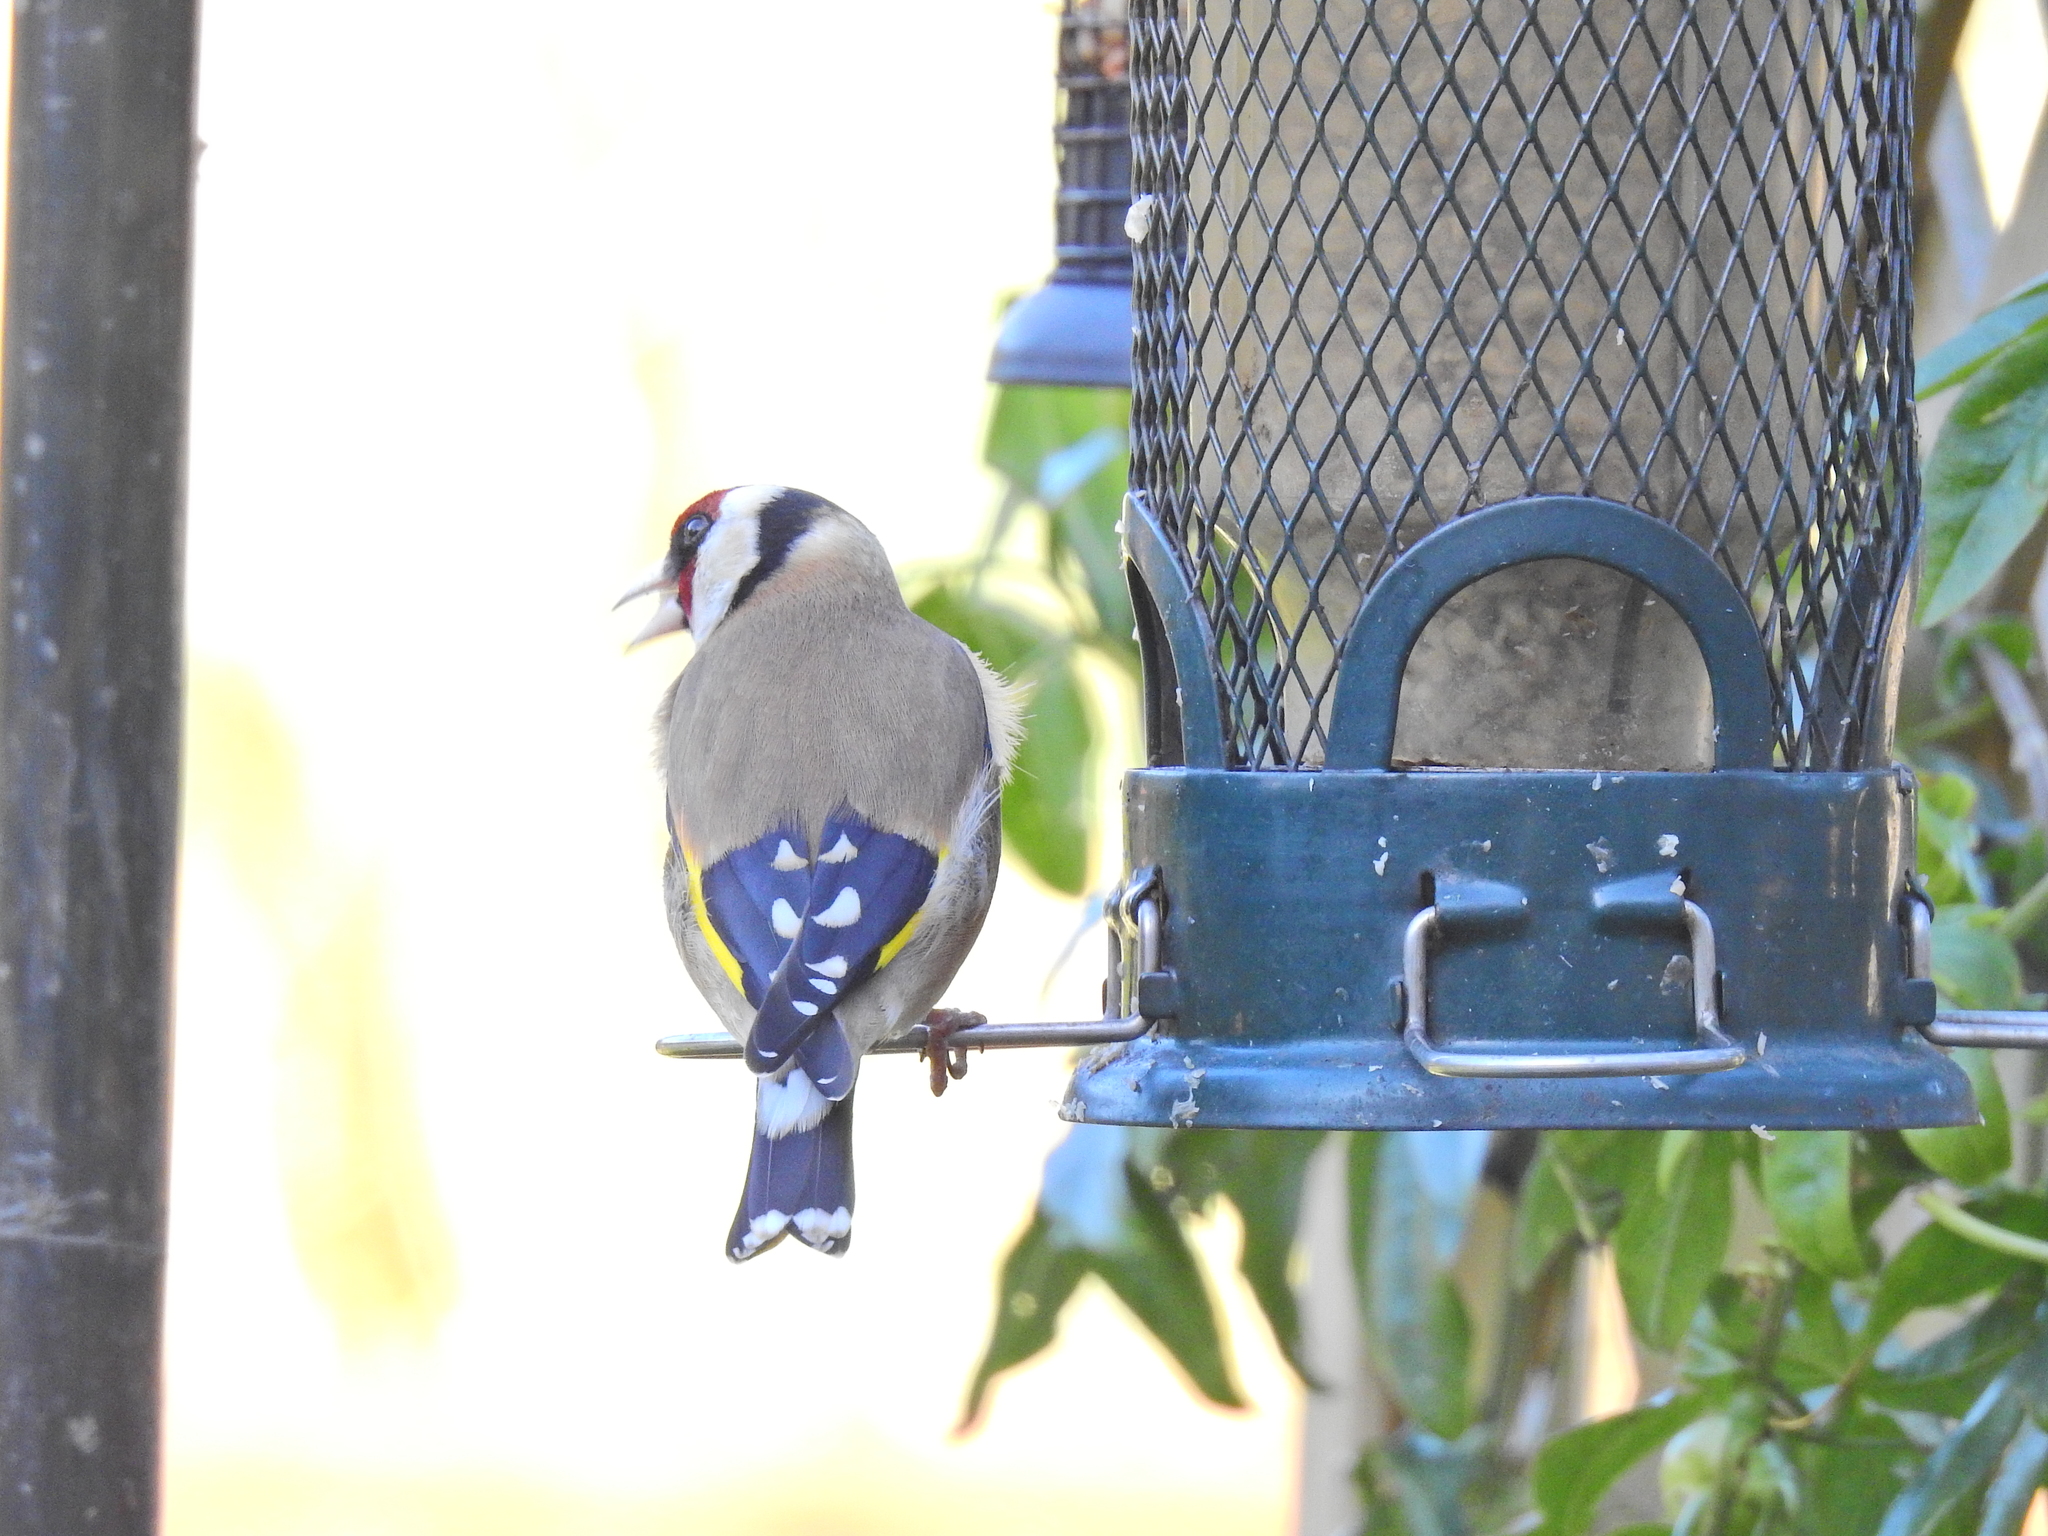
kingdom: Animalia
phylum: Chordata
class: Aves
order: Passeriformes
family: Fringillidae
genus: Carduelis
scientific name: Carduelis carduelis
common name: European goldfinch
